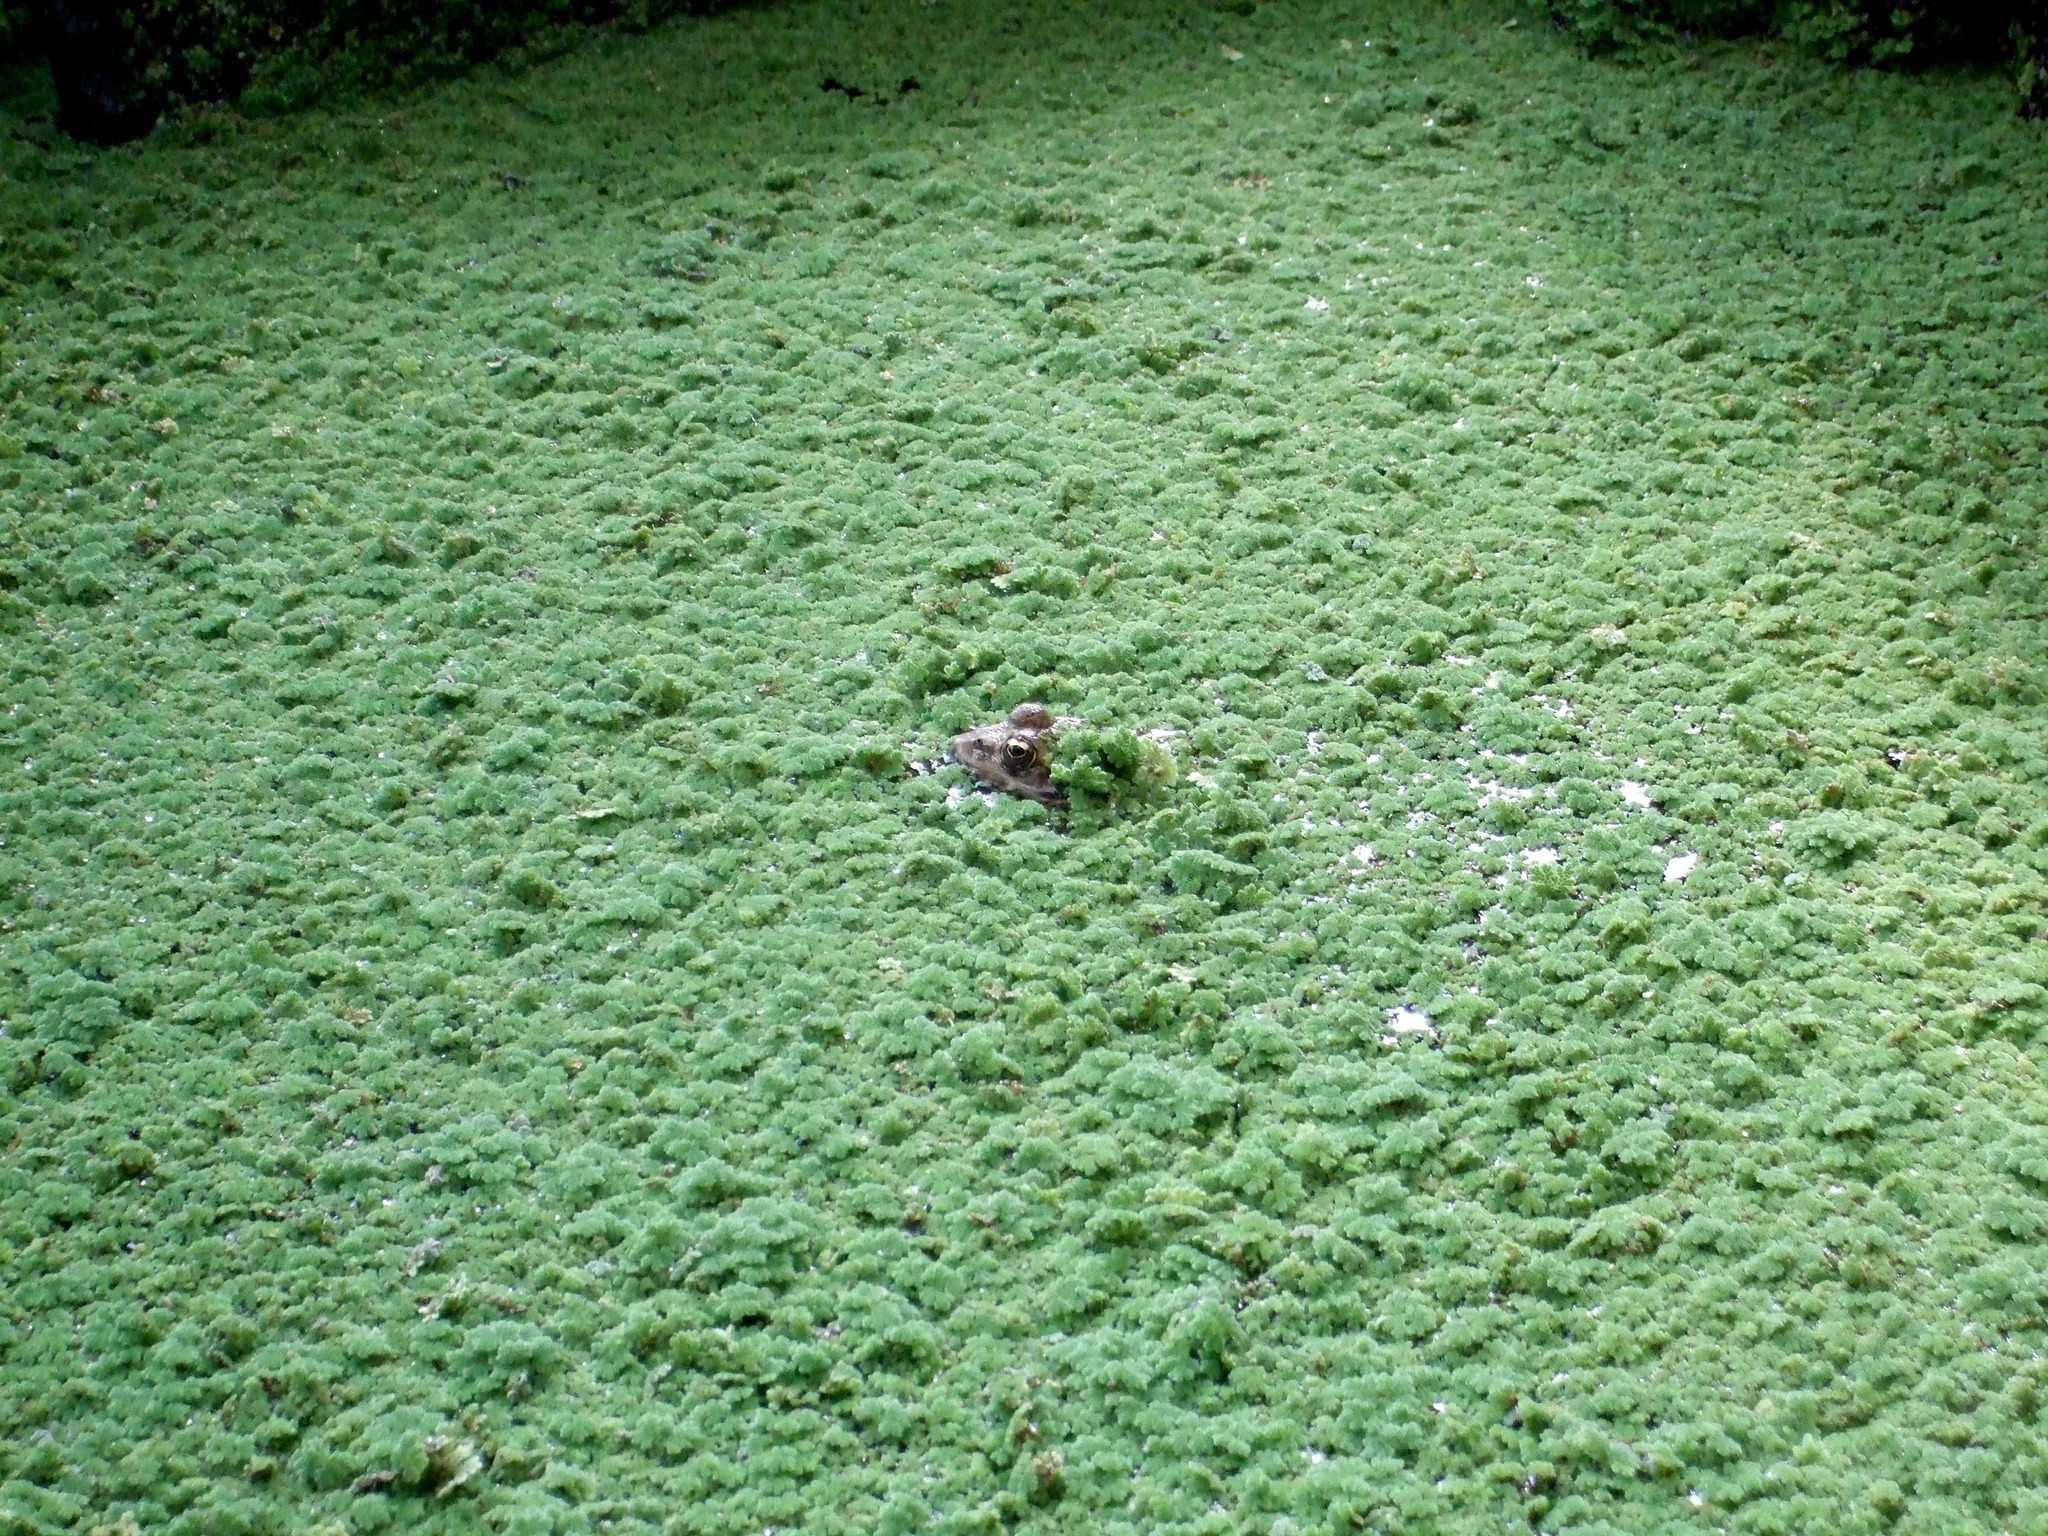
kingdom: Animalia
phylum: Chordata
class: Amphibia
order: Anura
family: Ranidae
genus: Pelophylax
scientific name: Pelophylax
